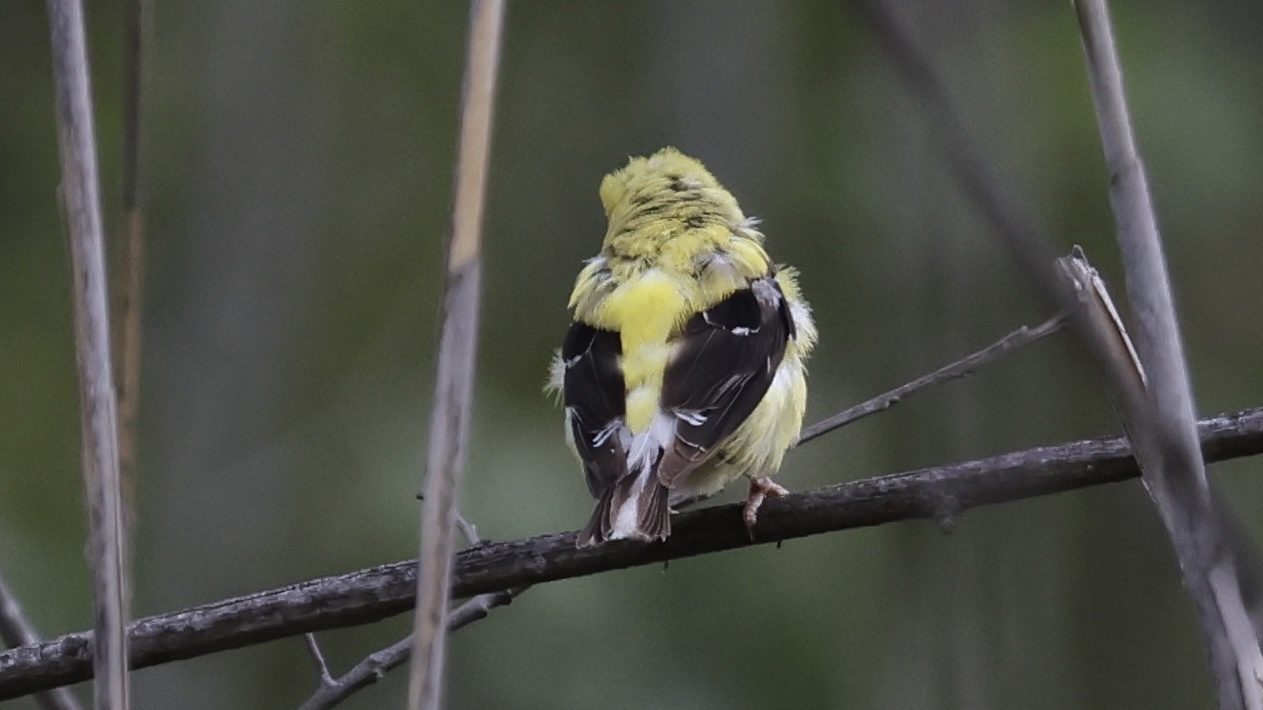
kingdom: Animalia
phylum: Chordata
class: Aves
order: Passeriformes
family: Fringillidae
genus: Spinus
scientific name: Spinus tristis
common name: American goldfinch
